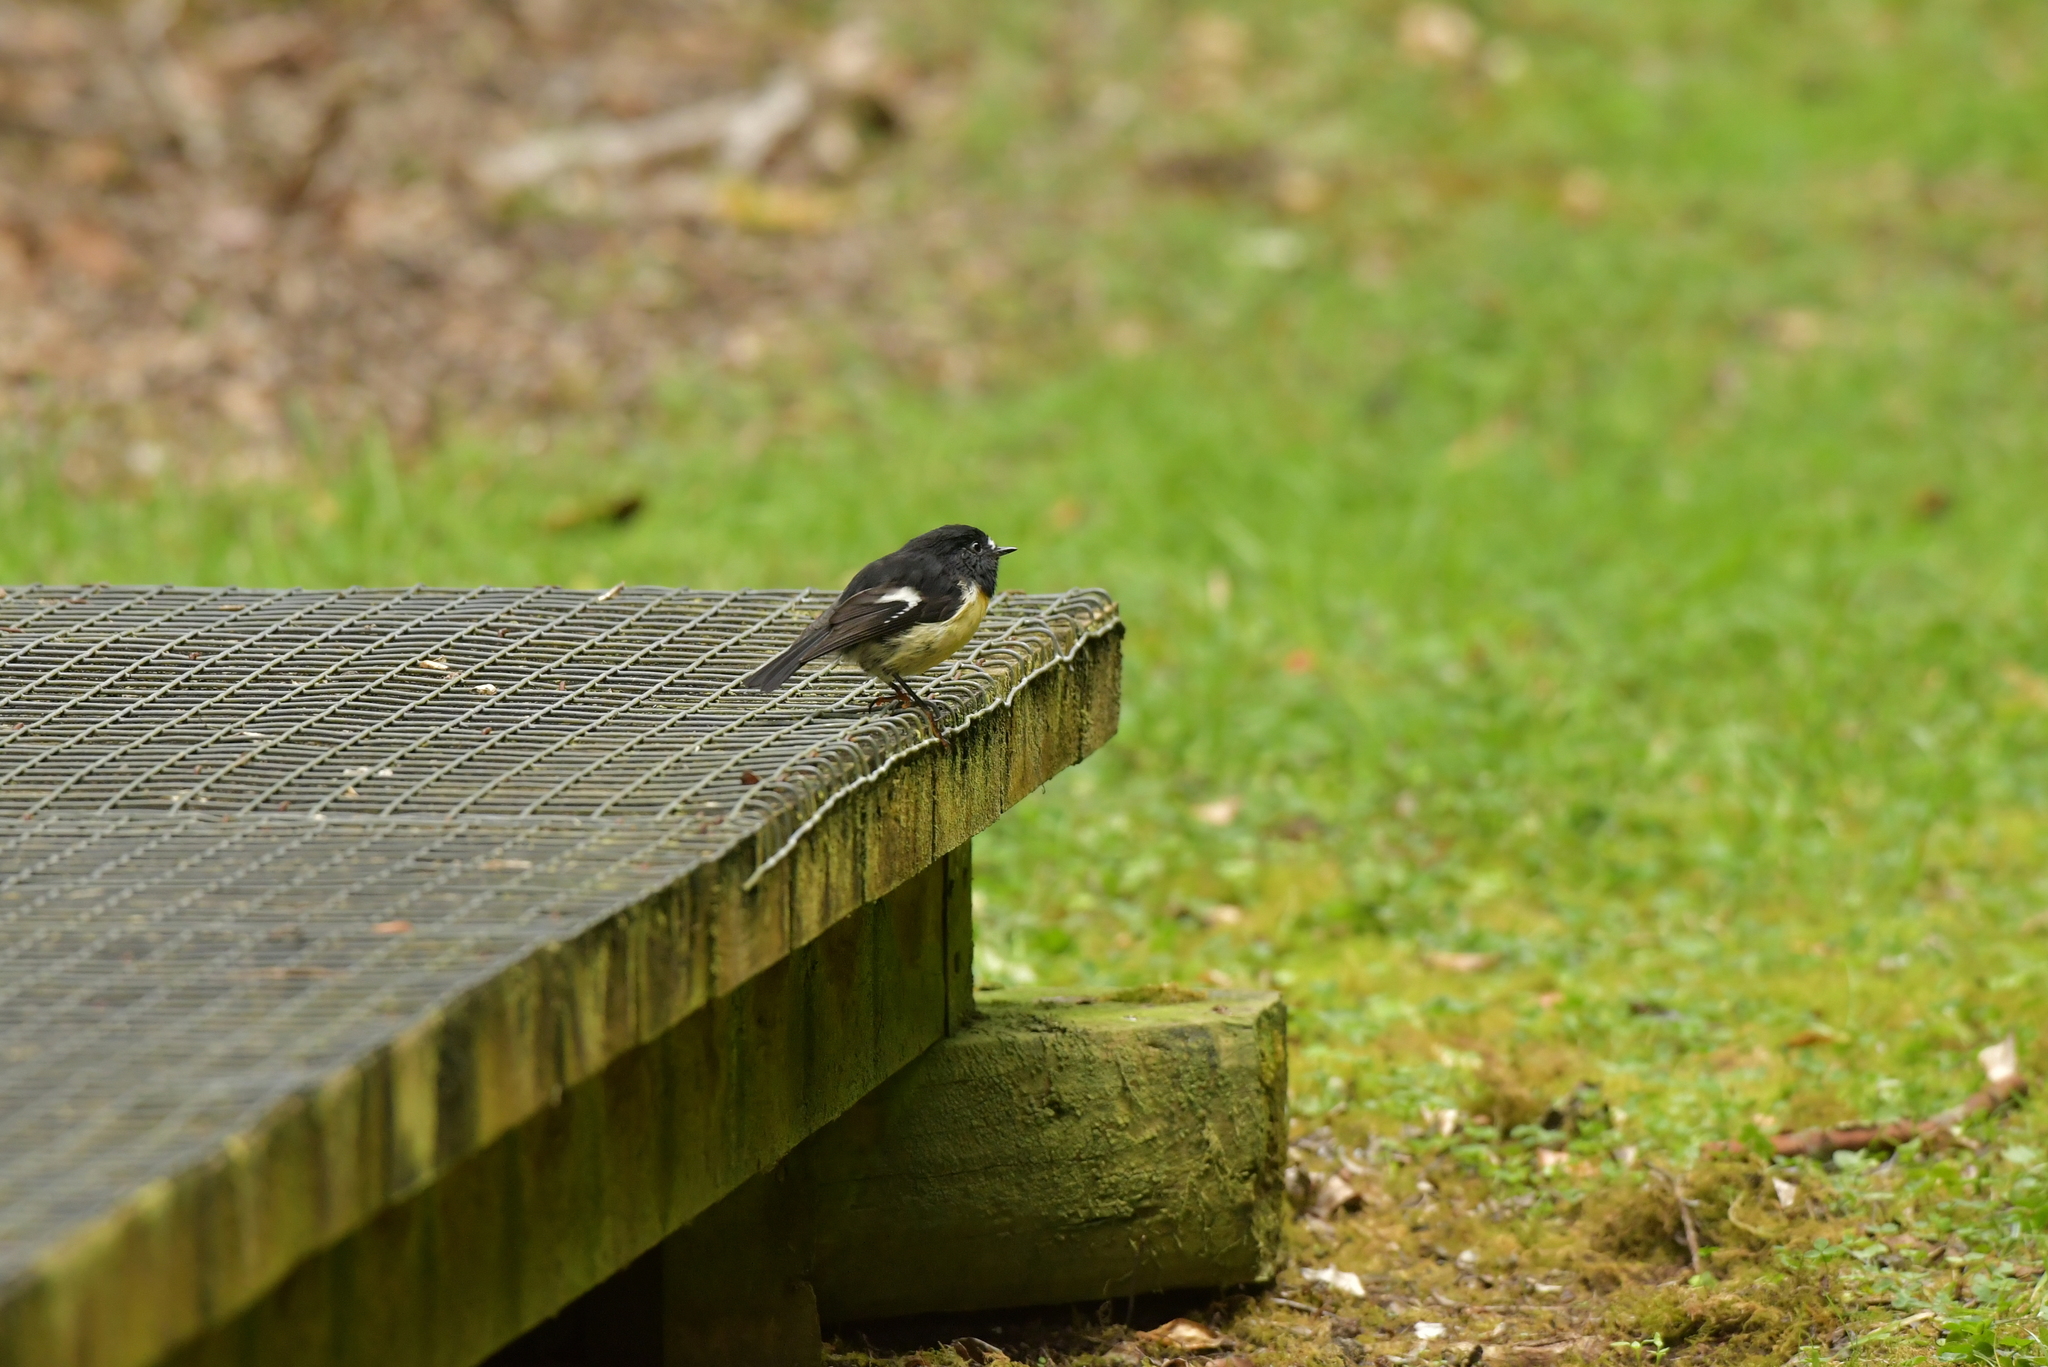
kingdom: Animalia
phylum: Chordata
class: Aves
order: Passeriformes
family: Petroicidae
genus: Petroica
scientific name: Petroica macrocephala
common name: Tomtit
